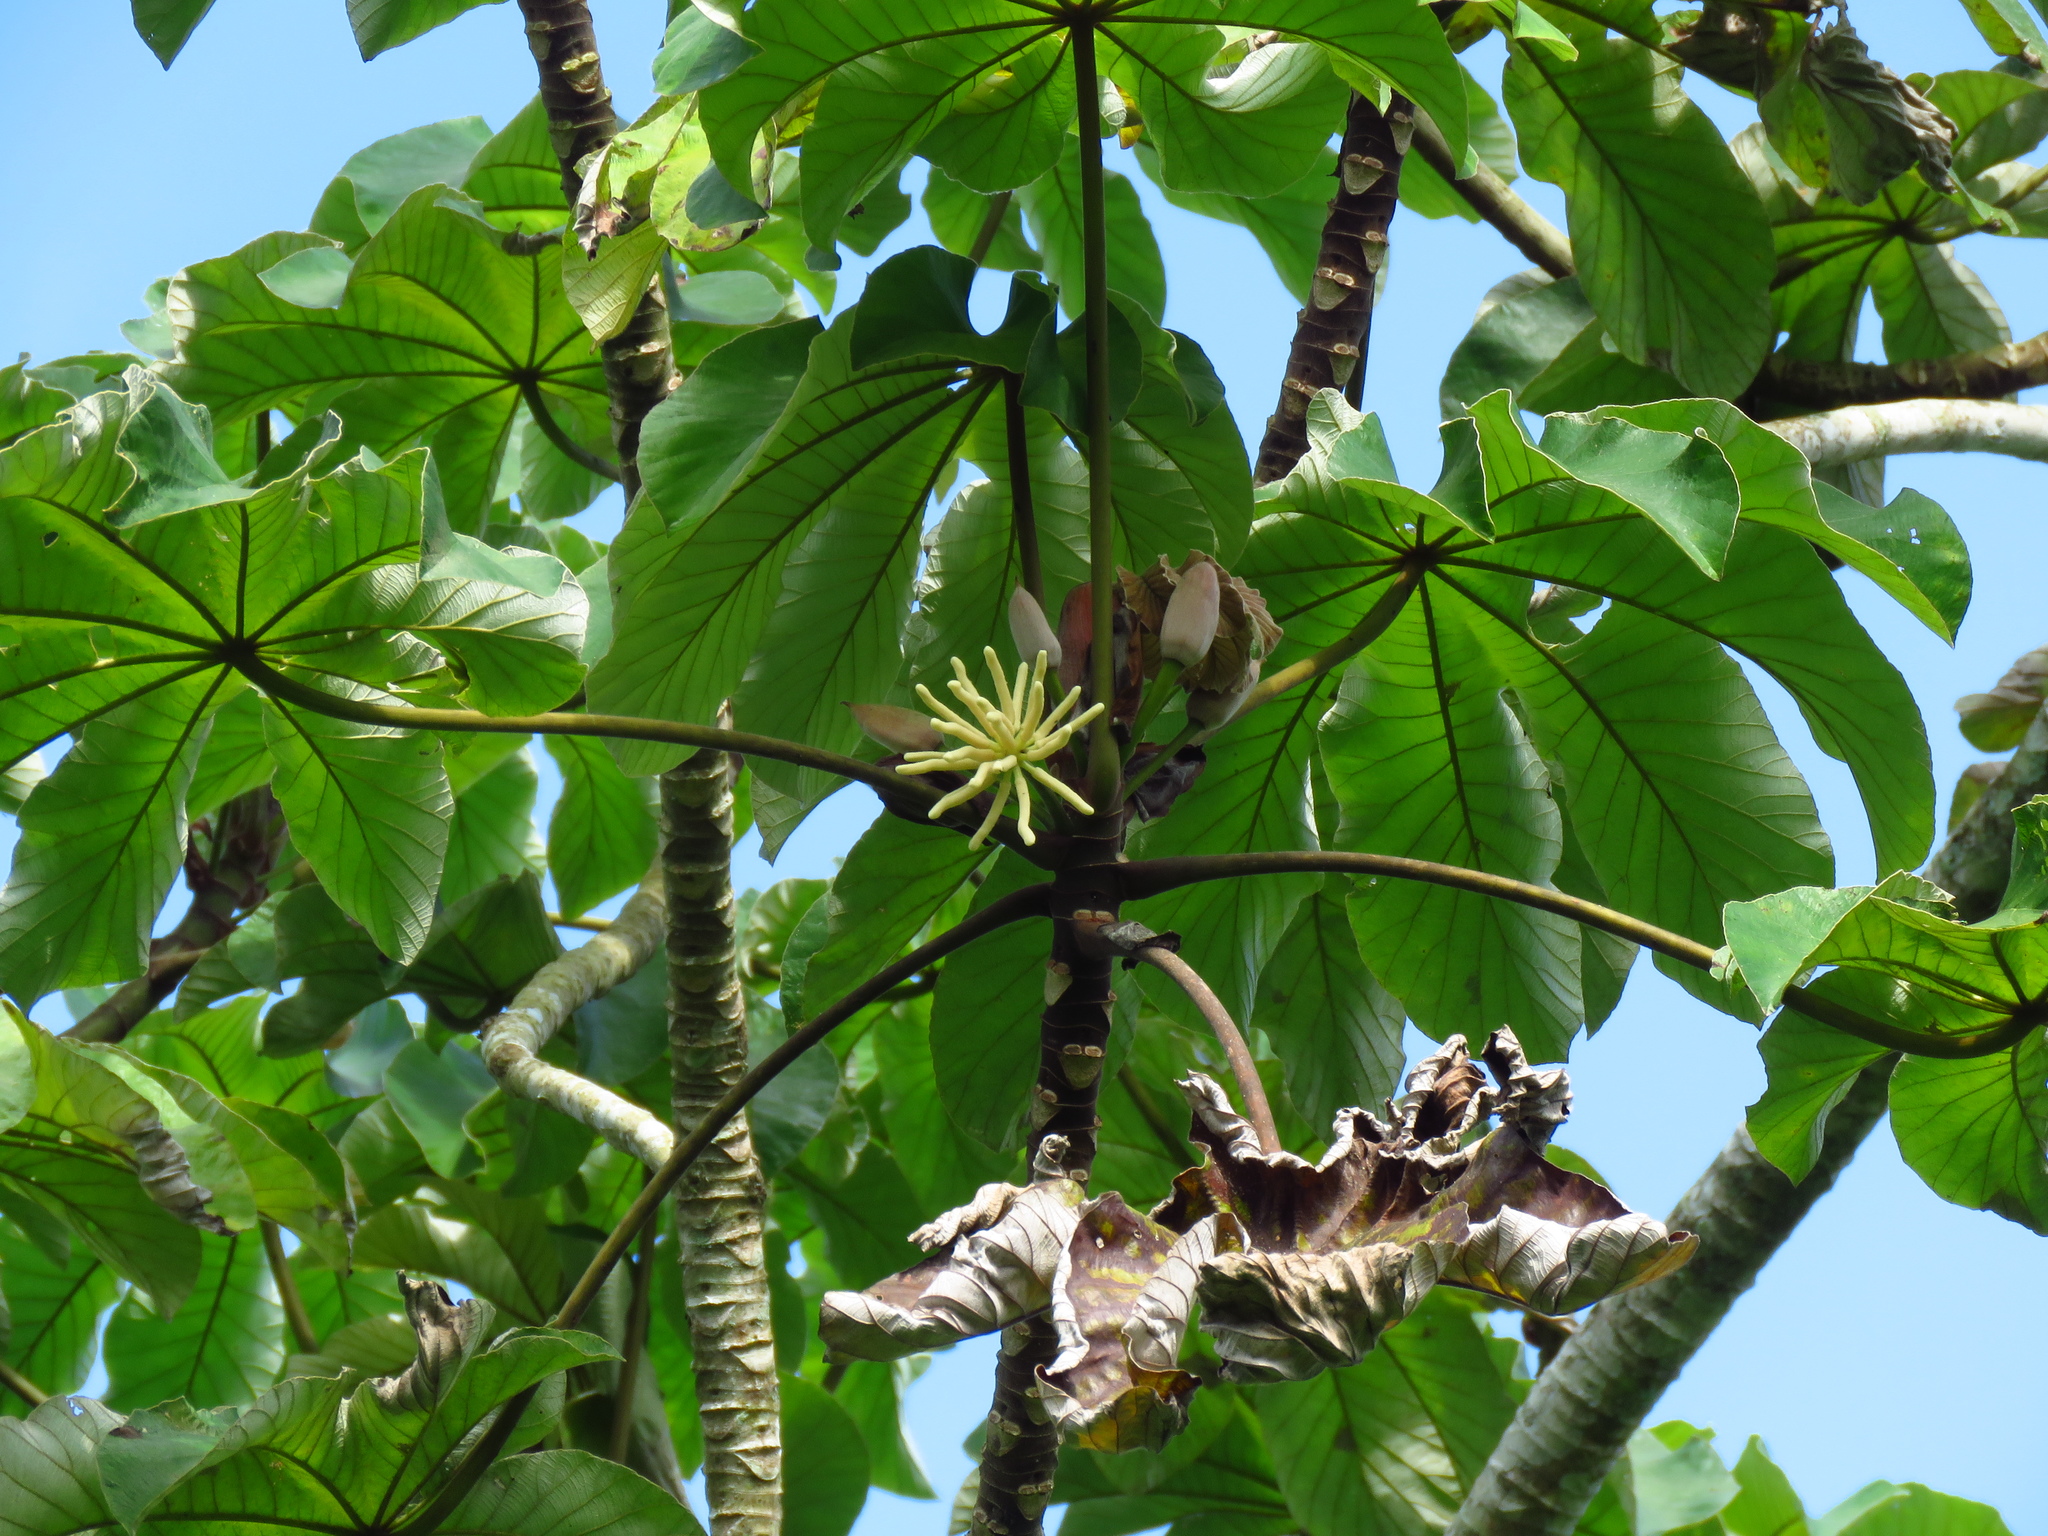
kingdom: Plantae
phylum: Tracheophyta
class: Magnoliopsida
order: Rosales
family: Urticaceae
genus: Cecropia
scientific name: Cecropia peltata
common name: Trumpet-tree
